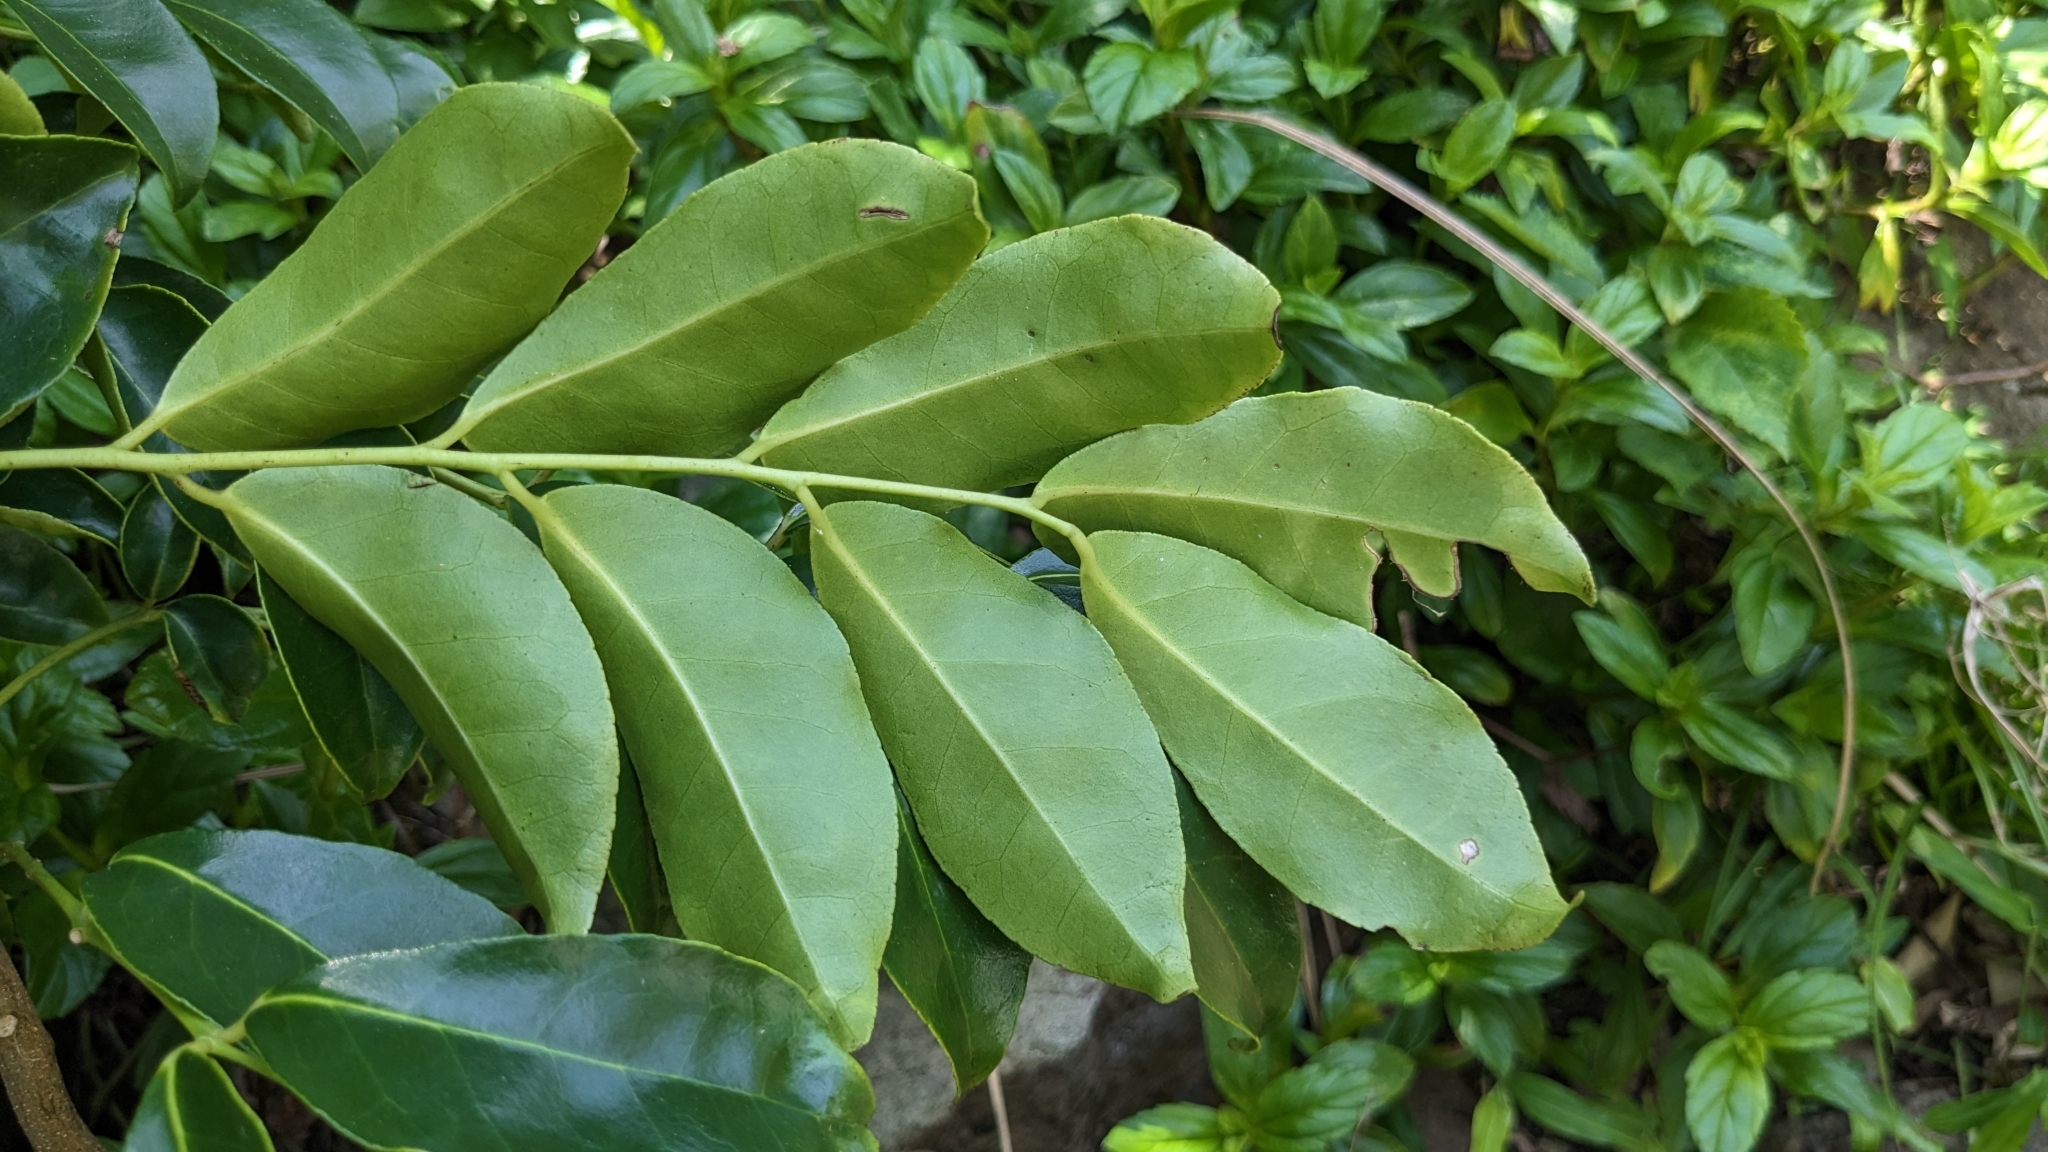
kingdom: Plantae
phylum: Tracheophyta
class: Magnoliopsida
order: Sapindales
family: Rutaceae
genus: Murraya
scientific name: Murraya crenulata
